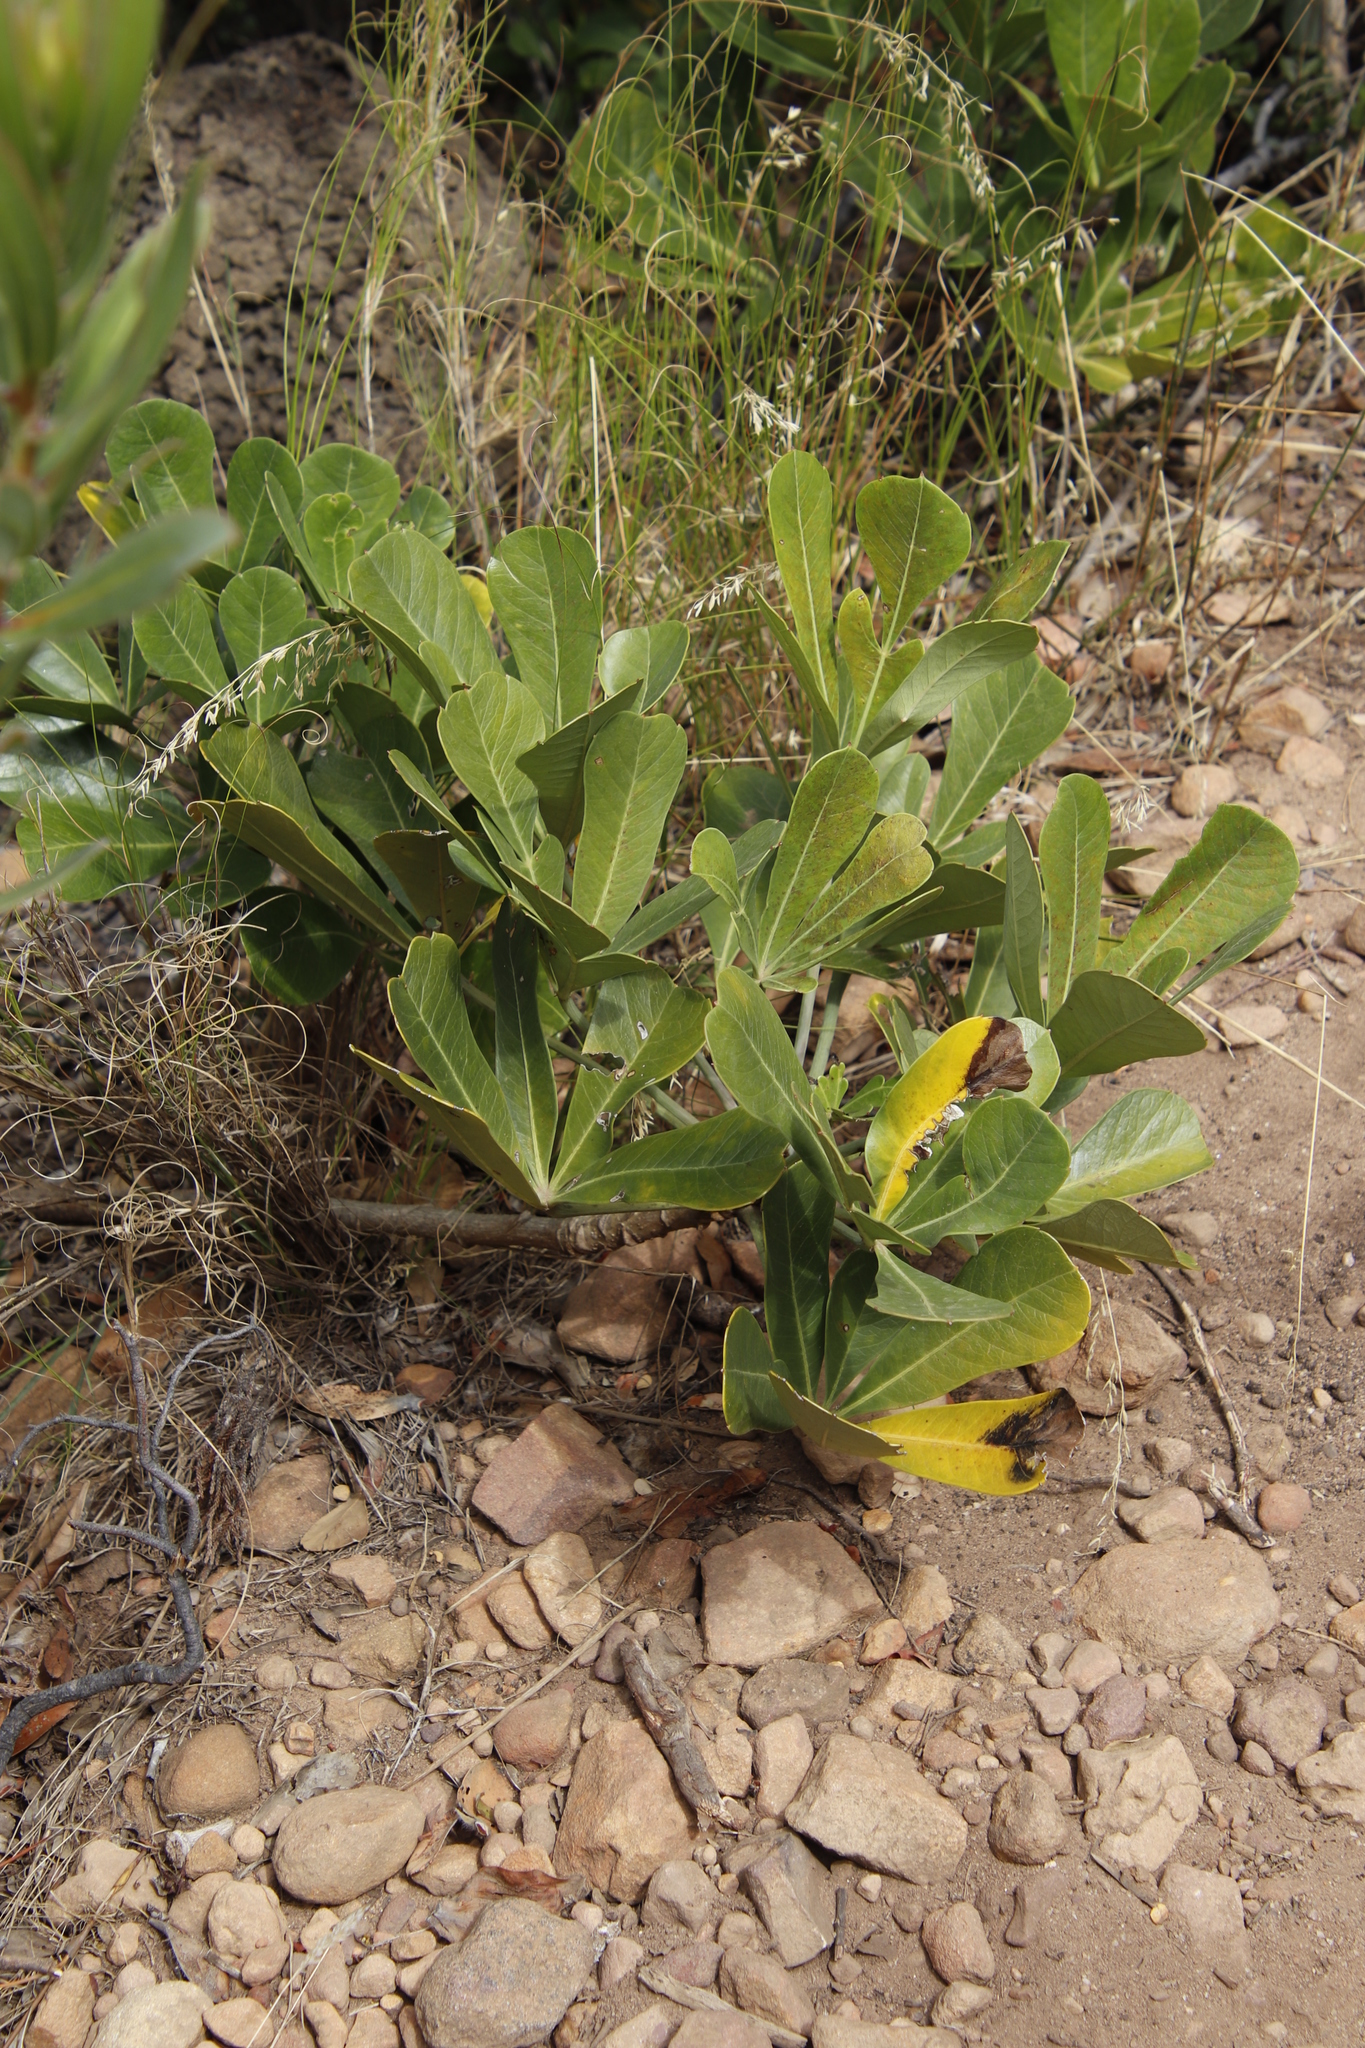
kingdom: Plantae
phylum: Tracheophyta
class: Magnoliopsida
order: Apiales
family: Araliaceae
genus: Cussonia
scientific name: Cussonia thyrsiflora
